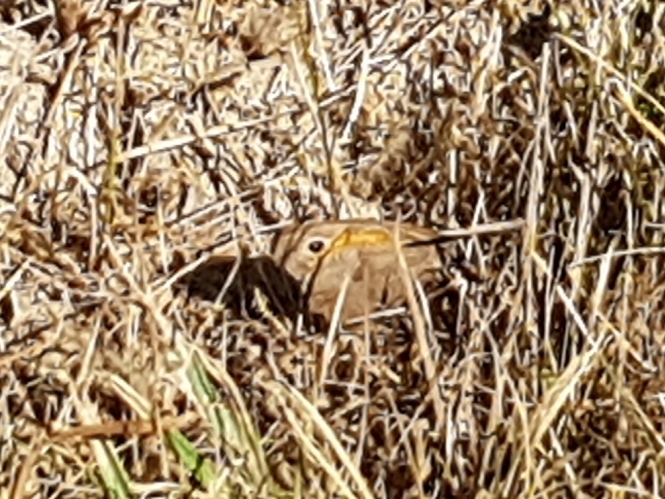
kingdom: Animalia
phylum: Arthropoda
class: Insecta
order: Lepidoptera
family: Nymphalidae
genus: Maniola
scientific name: Maniola jurtina
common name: Meadow brown
